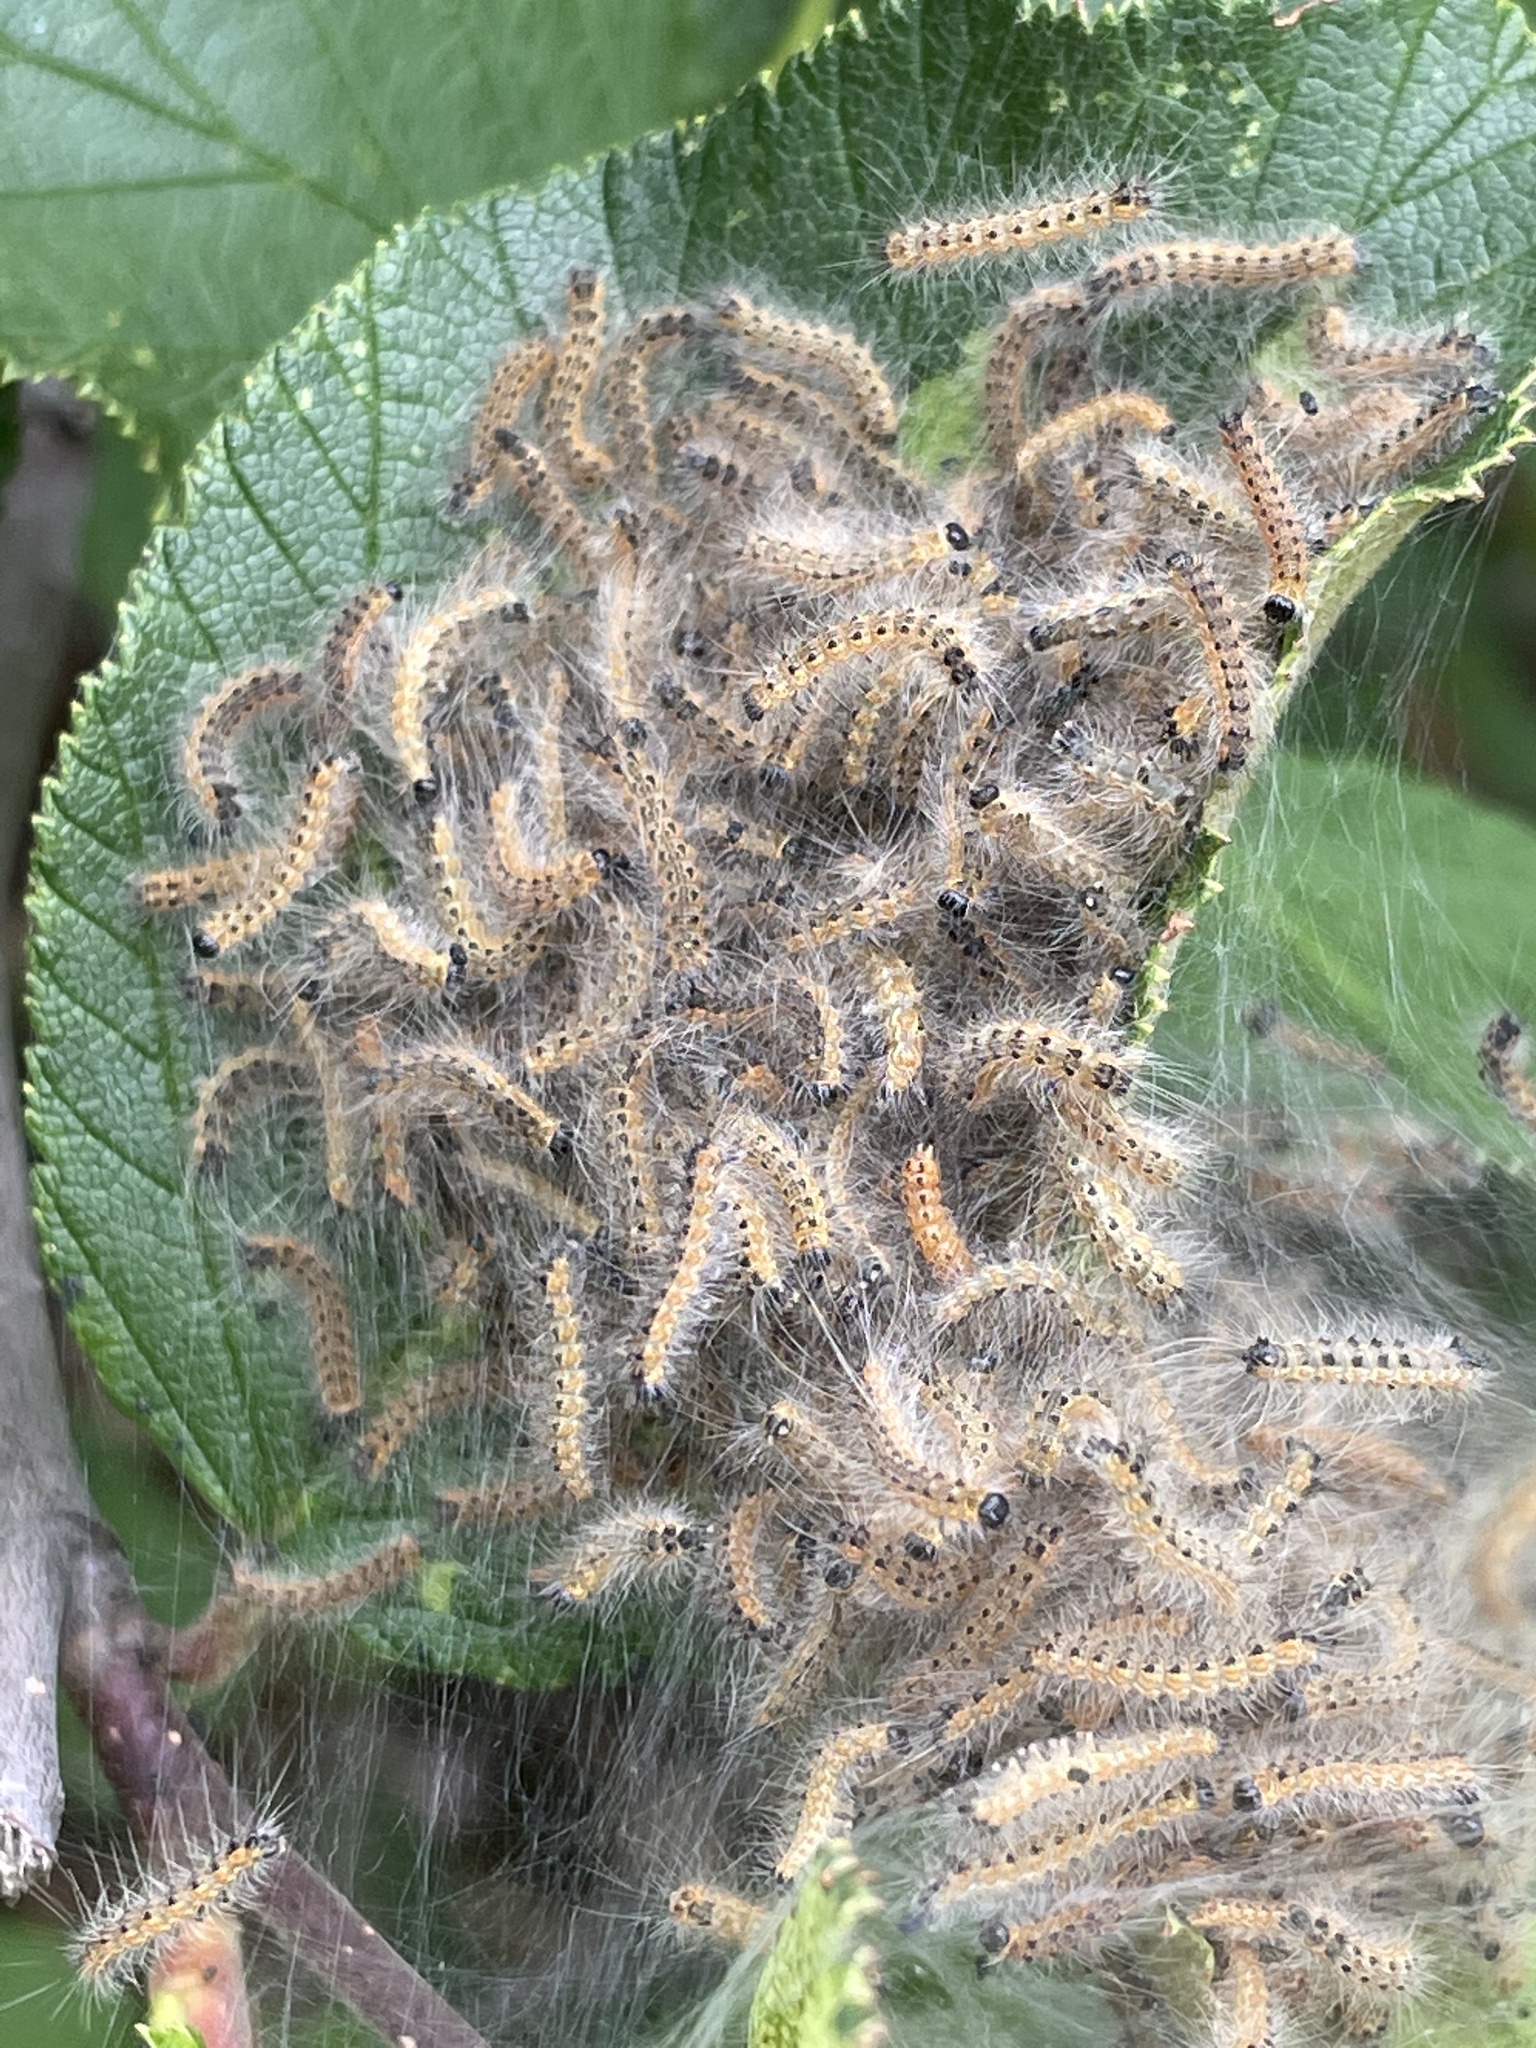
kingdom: Animalia
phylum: Arthropoda
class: Insecta
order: Lepidoptera
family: Erebidae
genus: Hyphantria
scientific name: Hyphantria cunea
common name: American white moth
